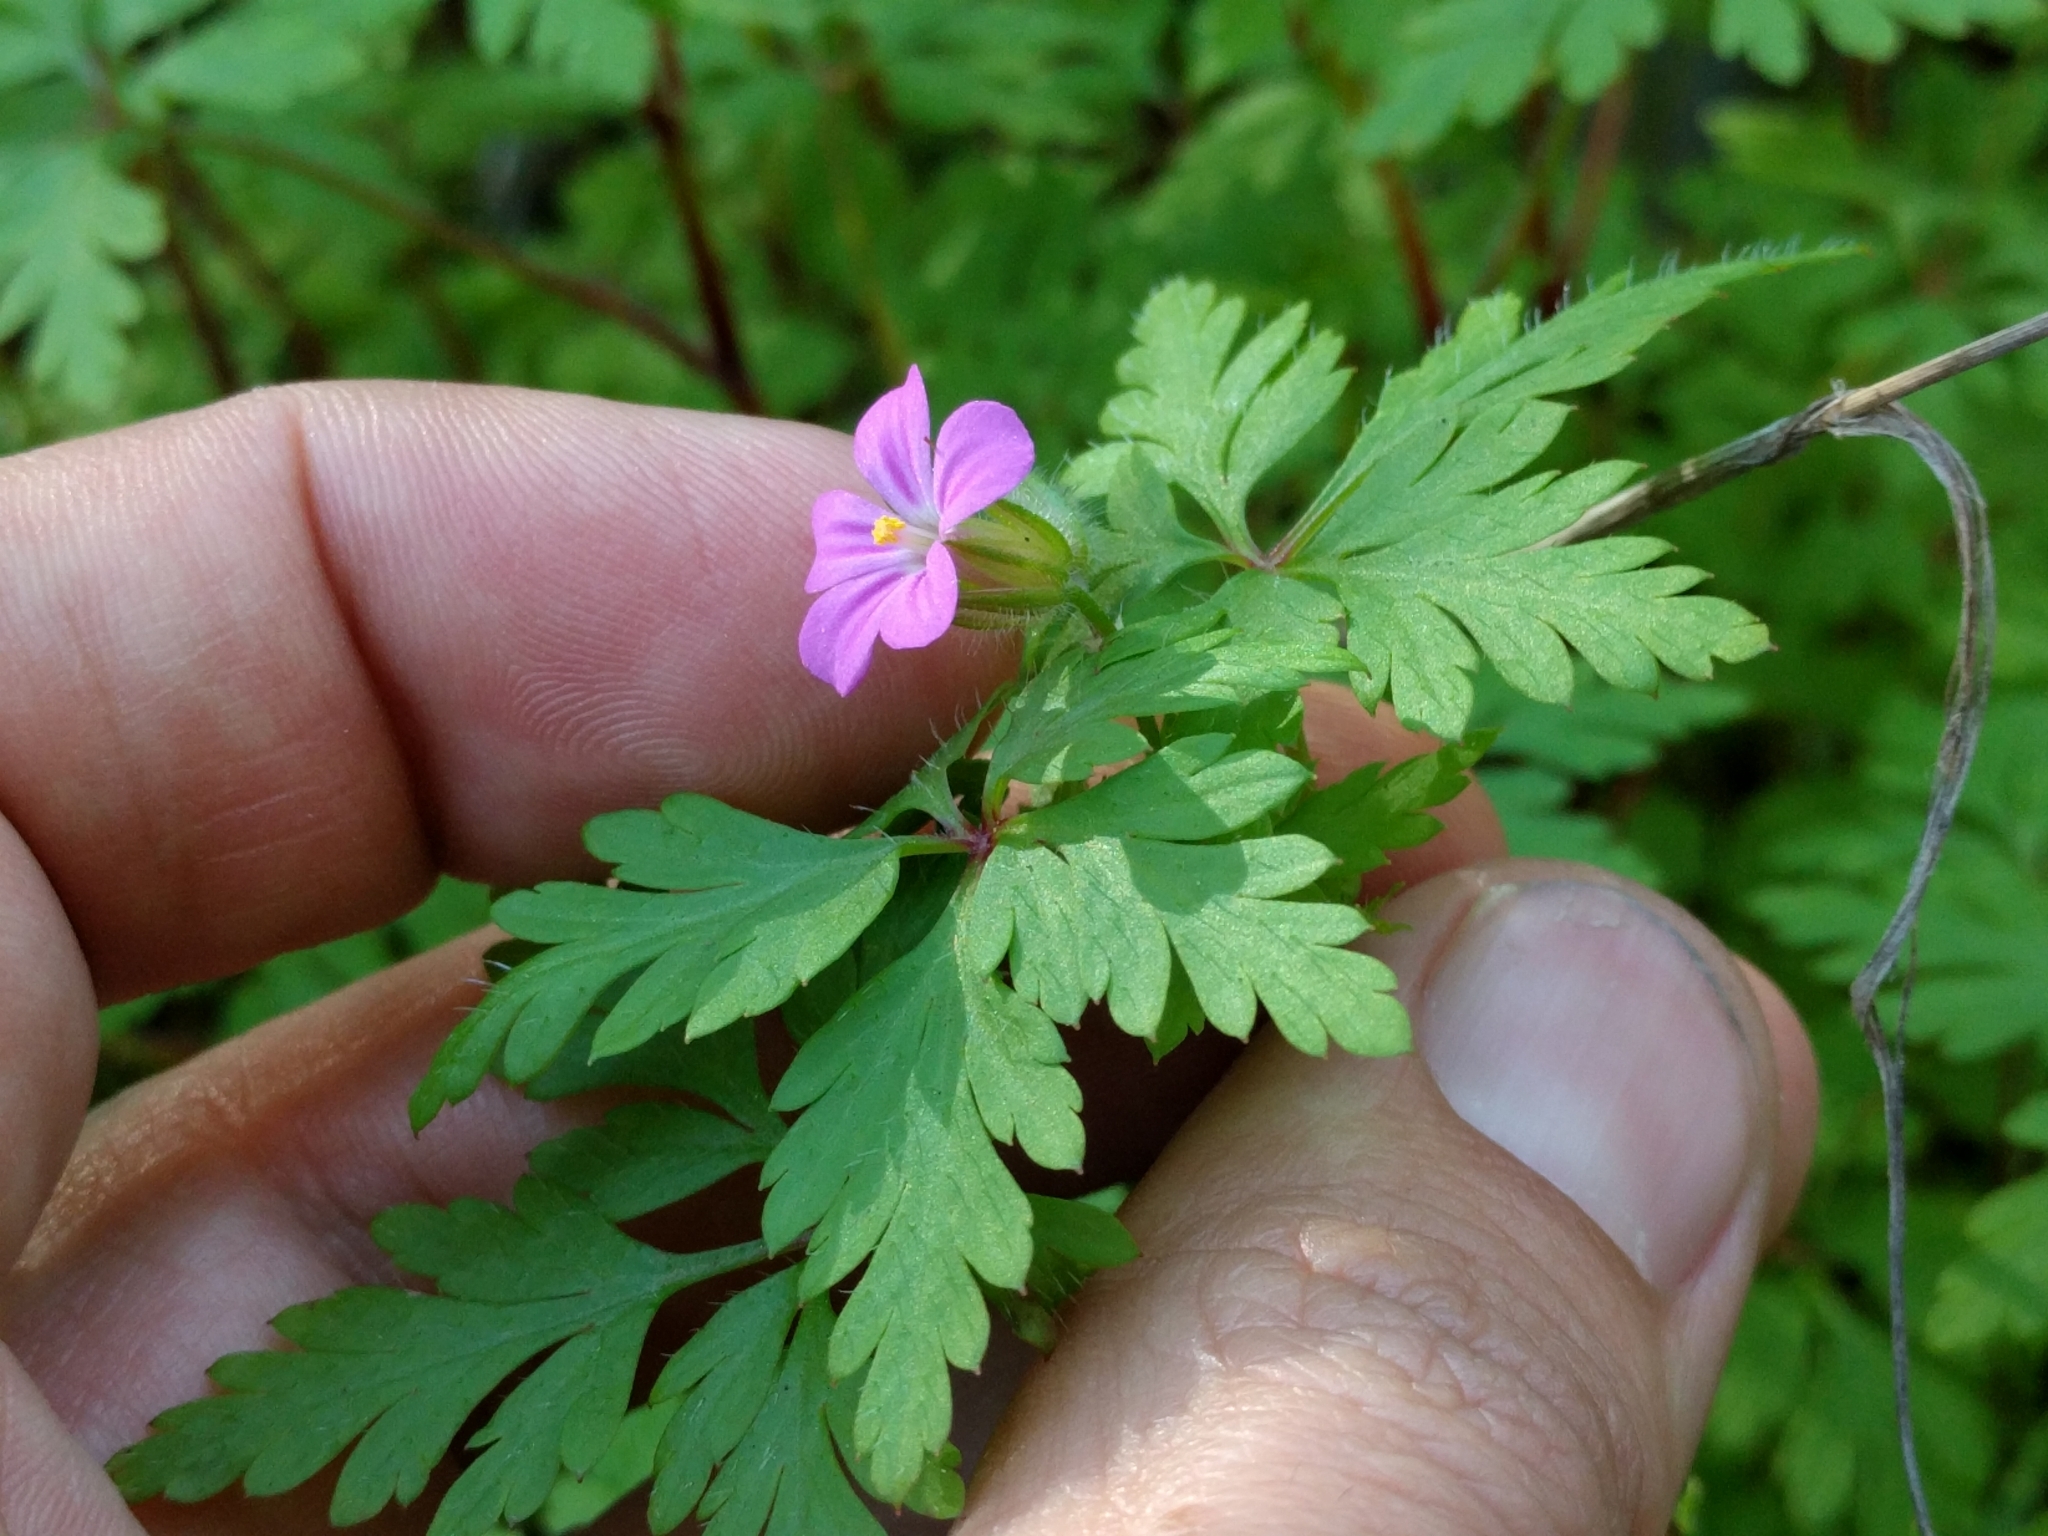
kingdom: Plantae
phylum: Tracheophyta
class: Magnoliopsida
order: Geraniales
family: Geraniaceae
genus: Geranium
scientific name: Geranium robertianum
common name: Herb-robert
